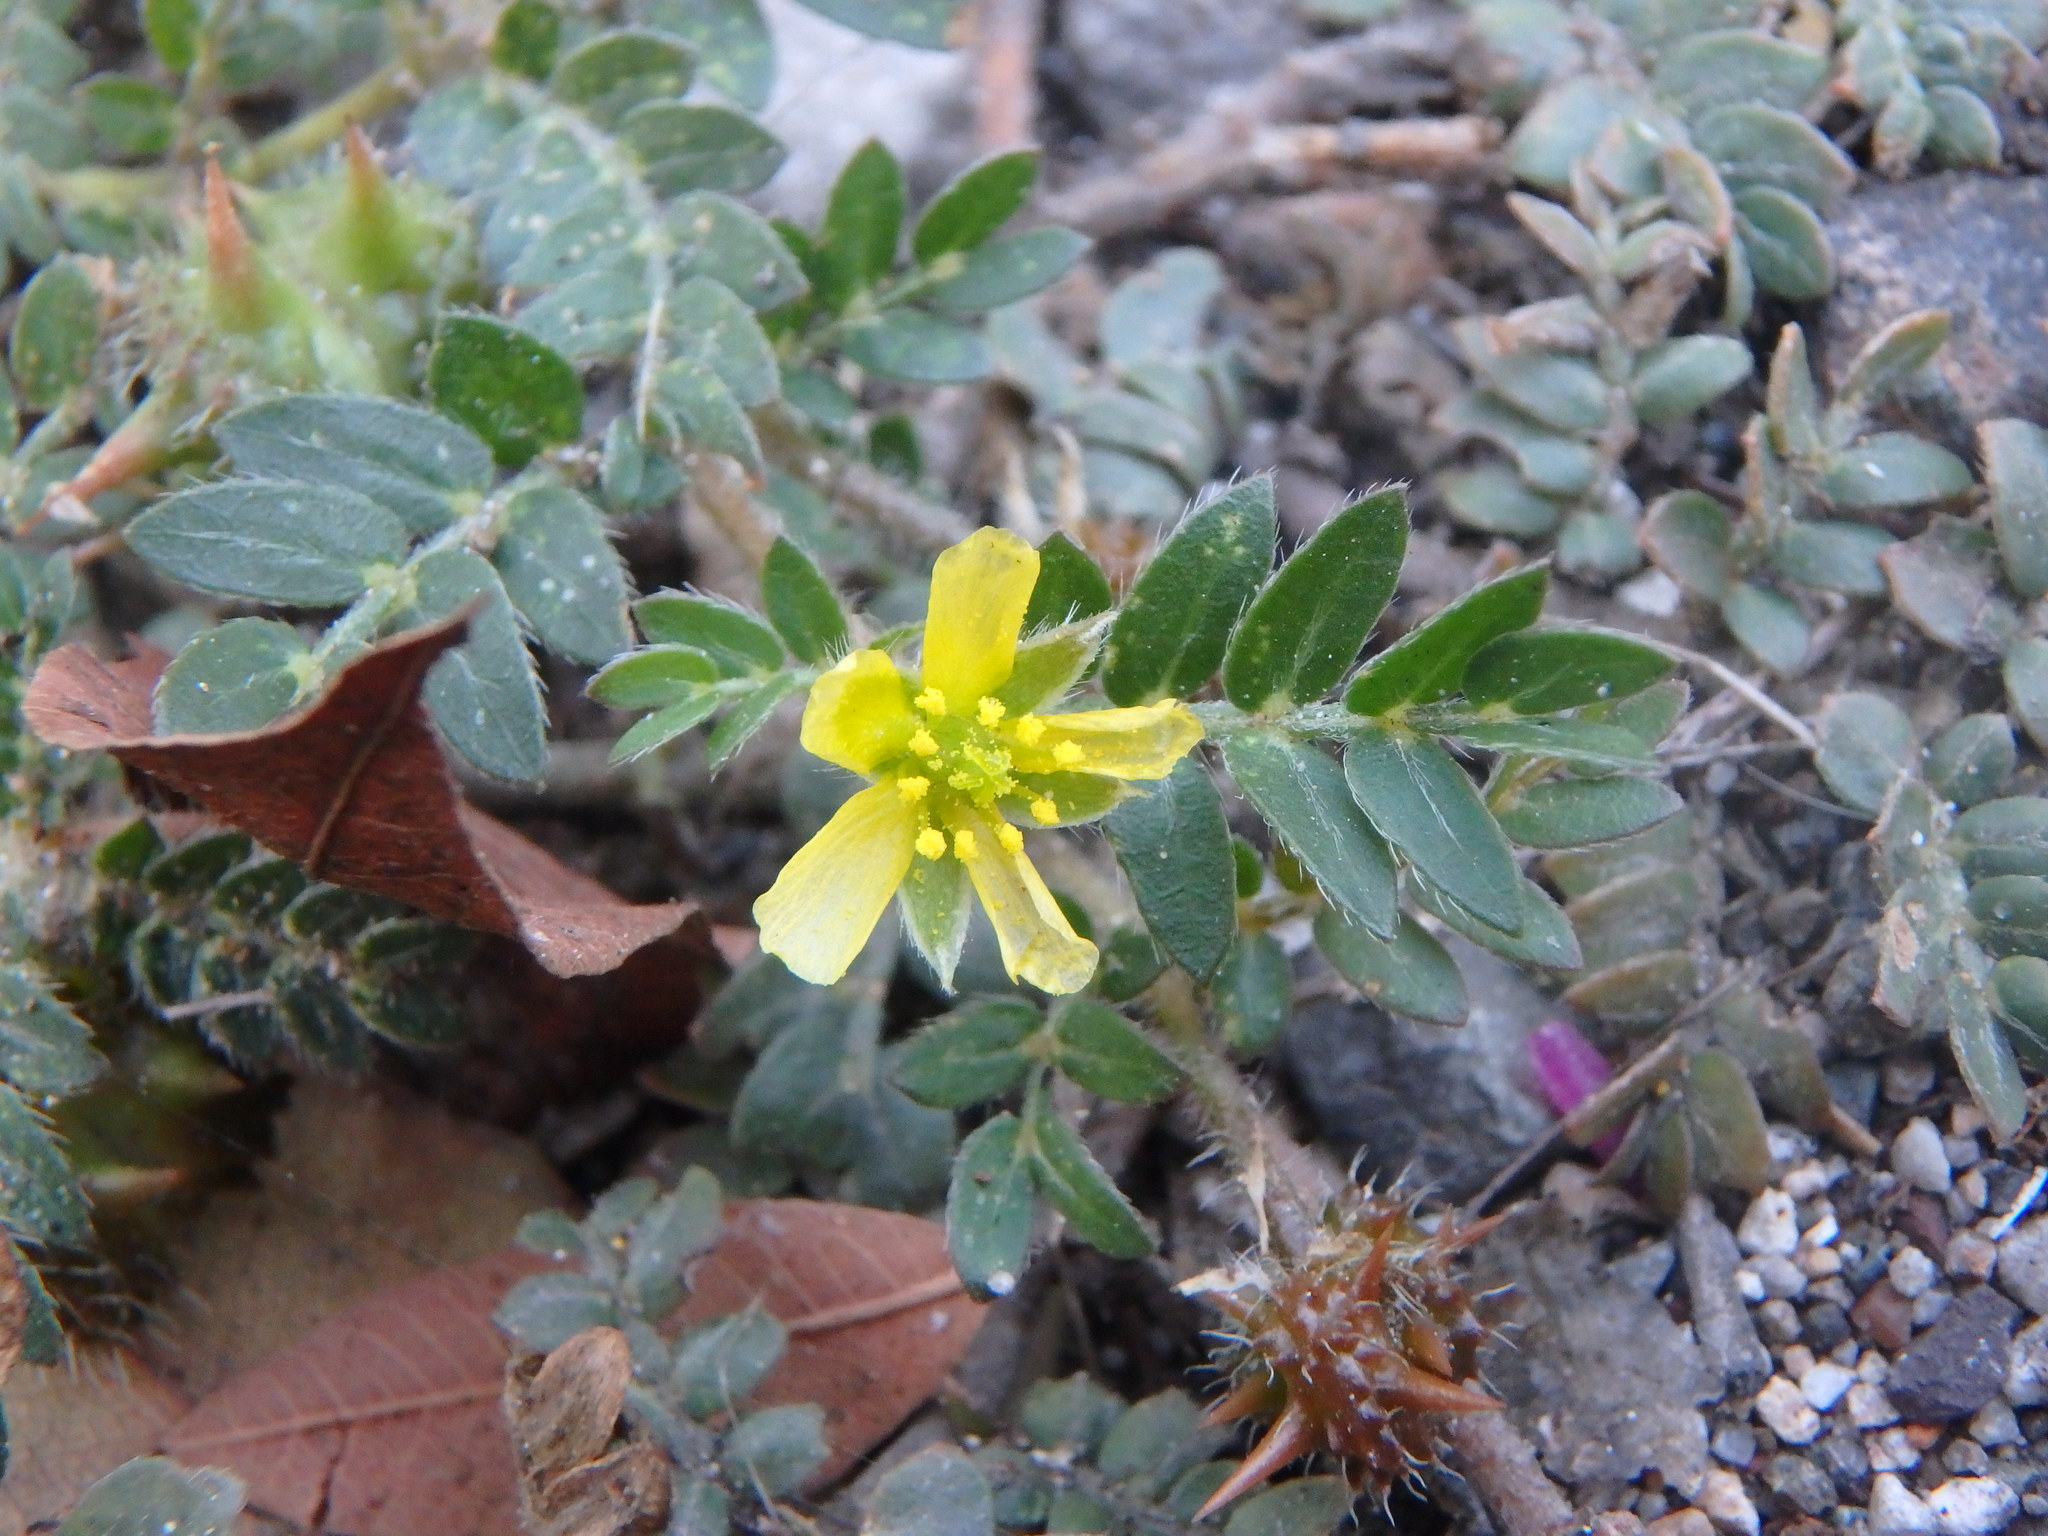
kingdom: Plantae
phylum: Tracheophyta
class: Magnoliopsida
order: Zygophyllales
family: Zygophyllaceae
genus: Tribulus
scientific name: Tribulus terrestris
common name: Puncturevine
